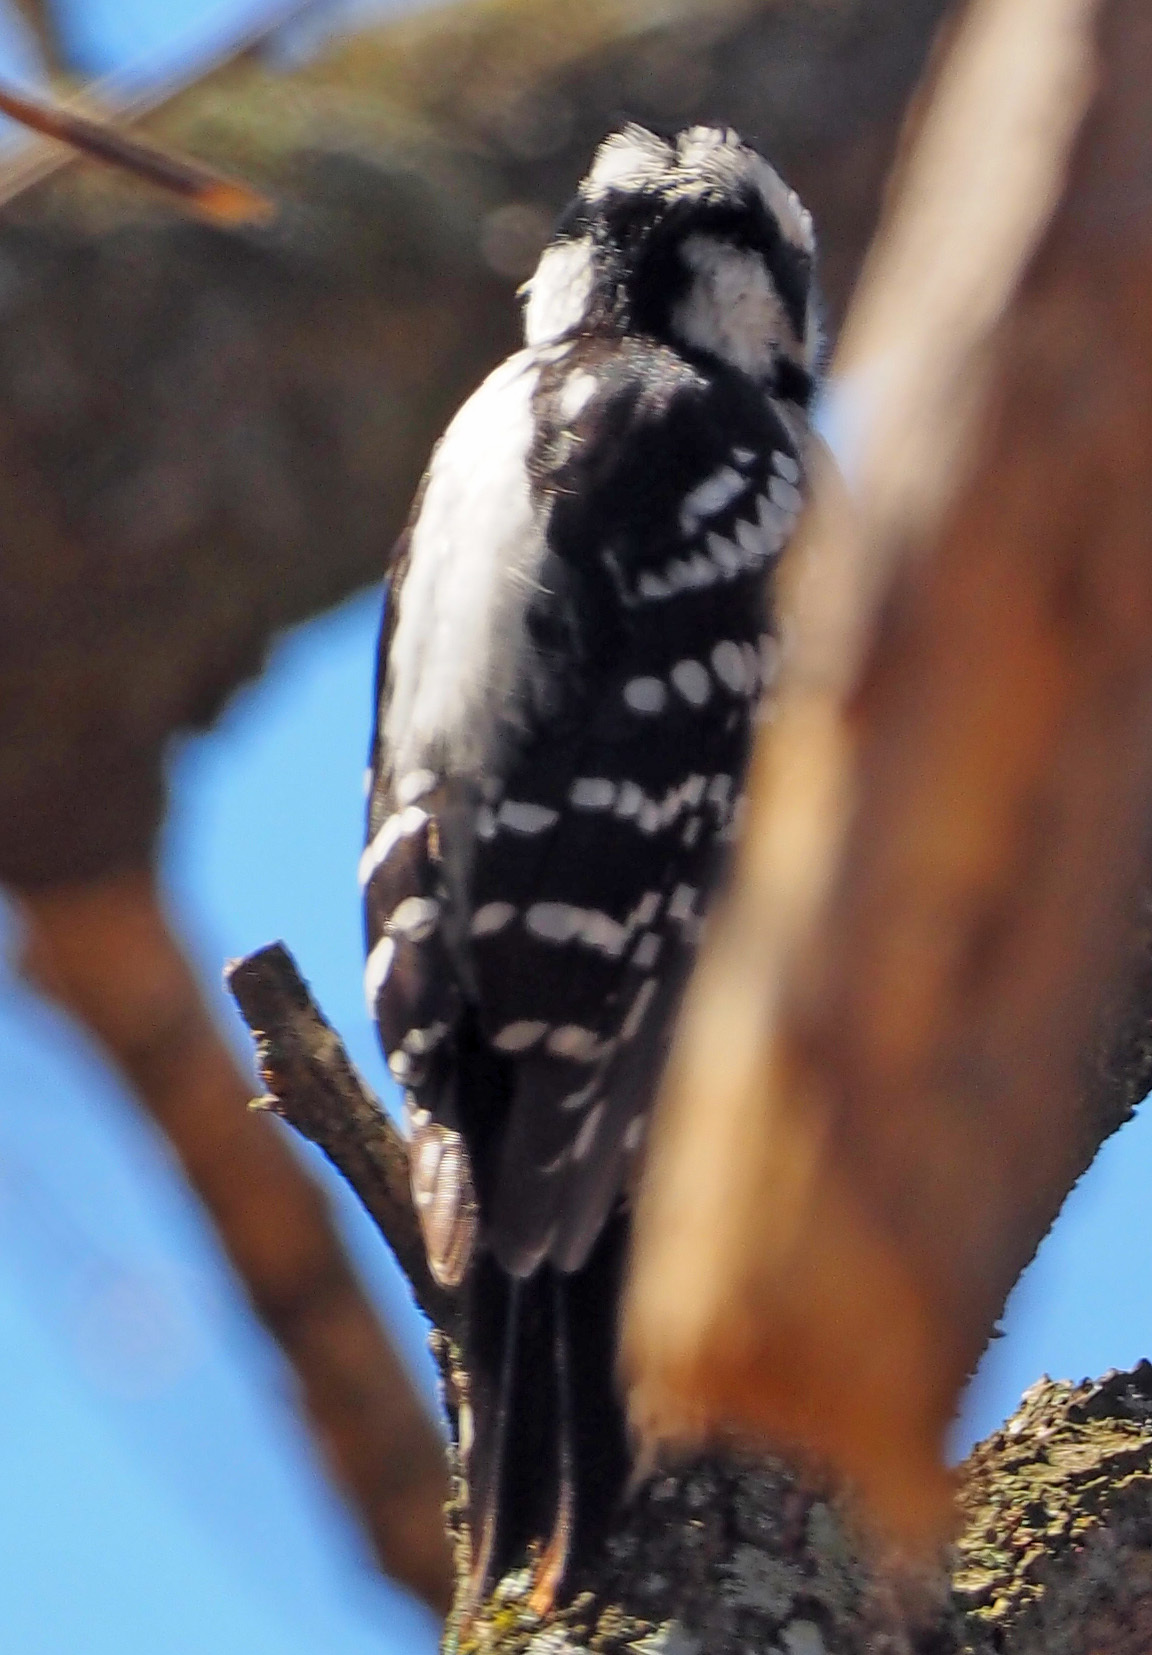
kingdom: Animalia
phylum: Chordata
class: Aves
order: Piciformes
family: Picidae
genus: Dryobates
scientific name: Dryobates pubescens
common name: Downy woodpecker
